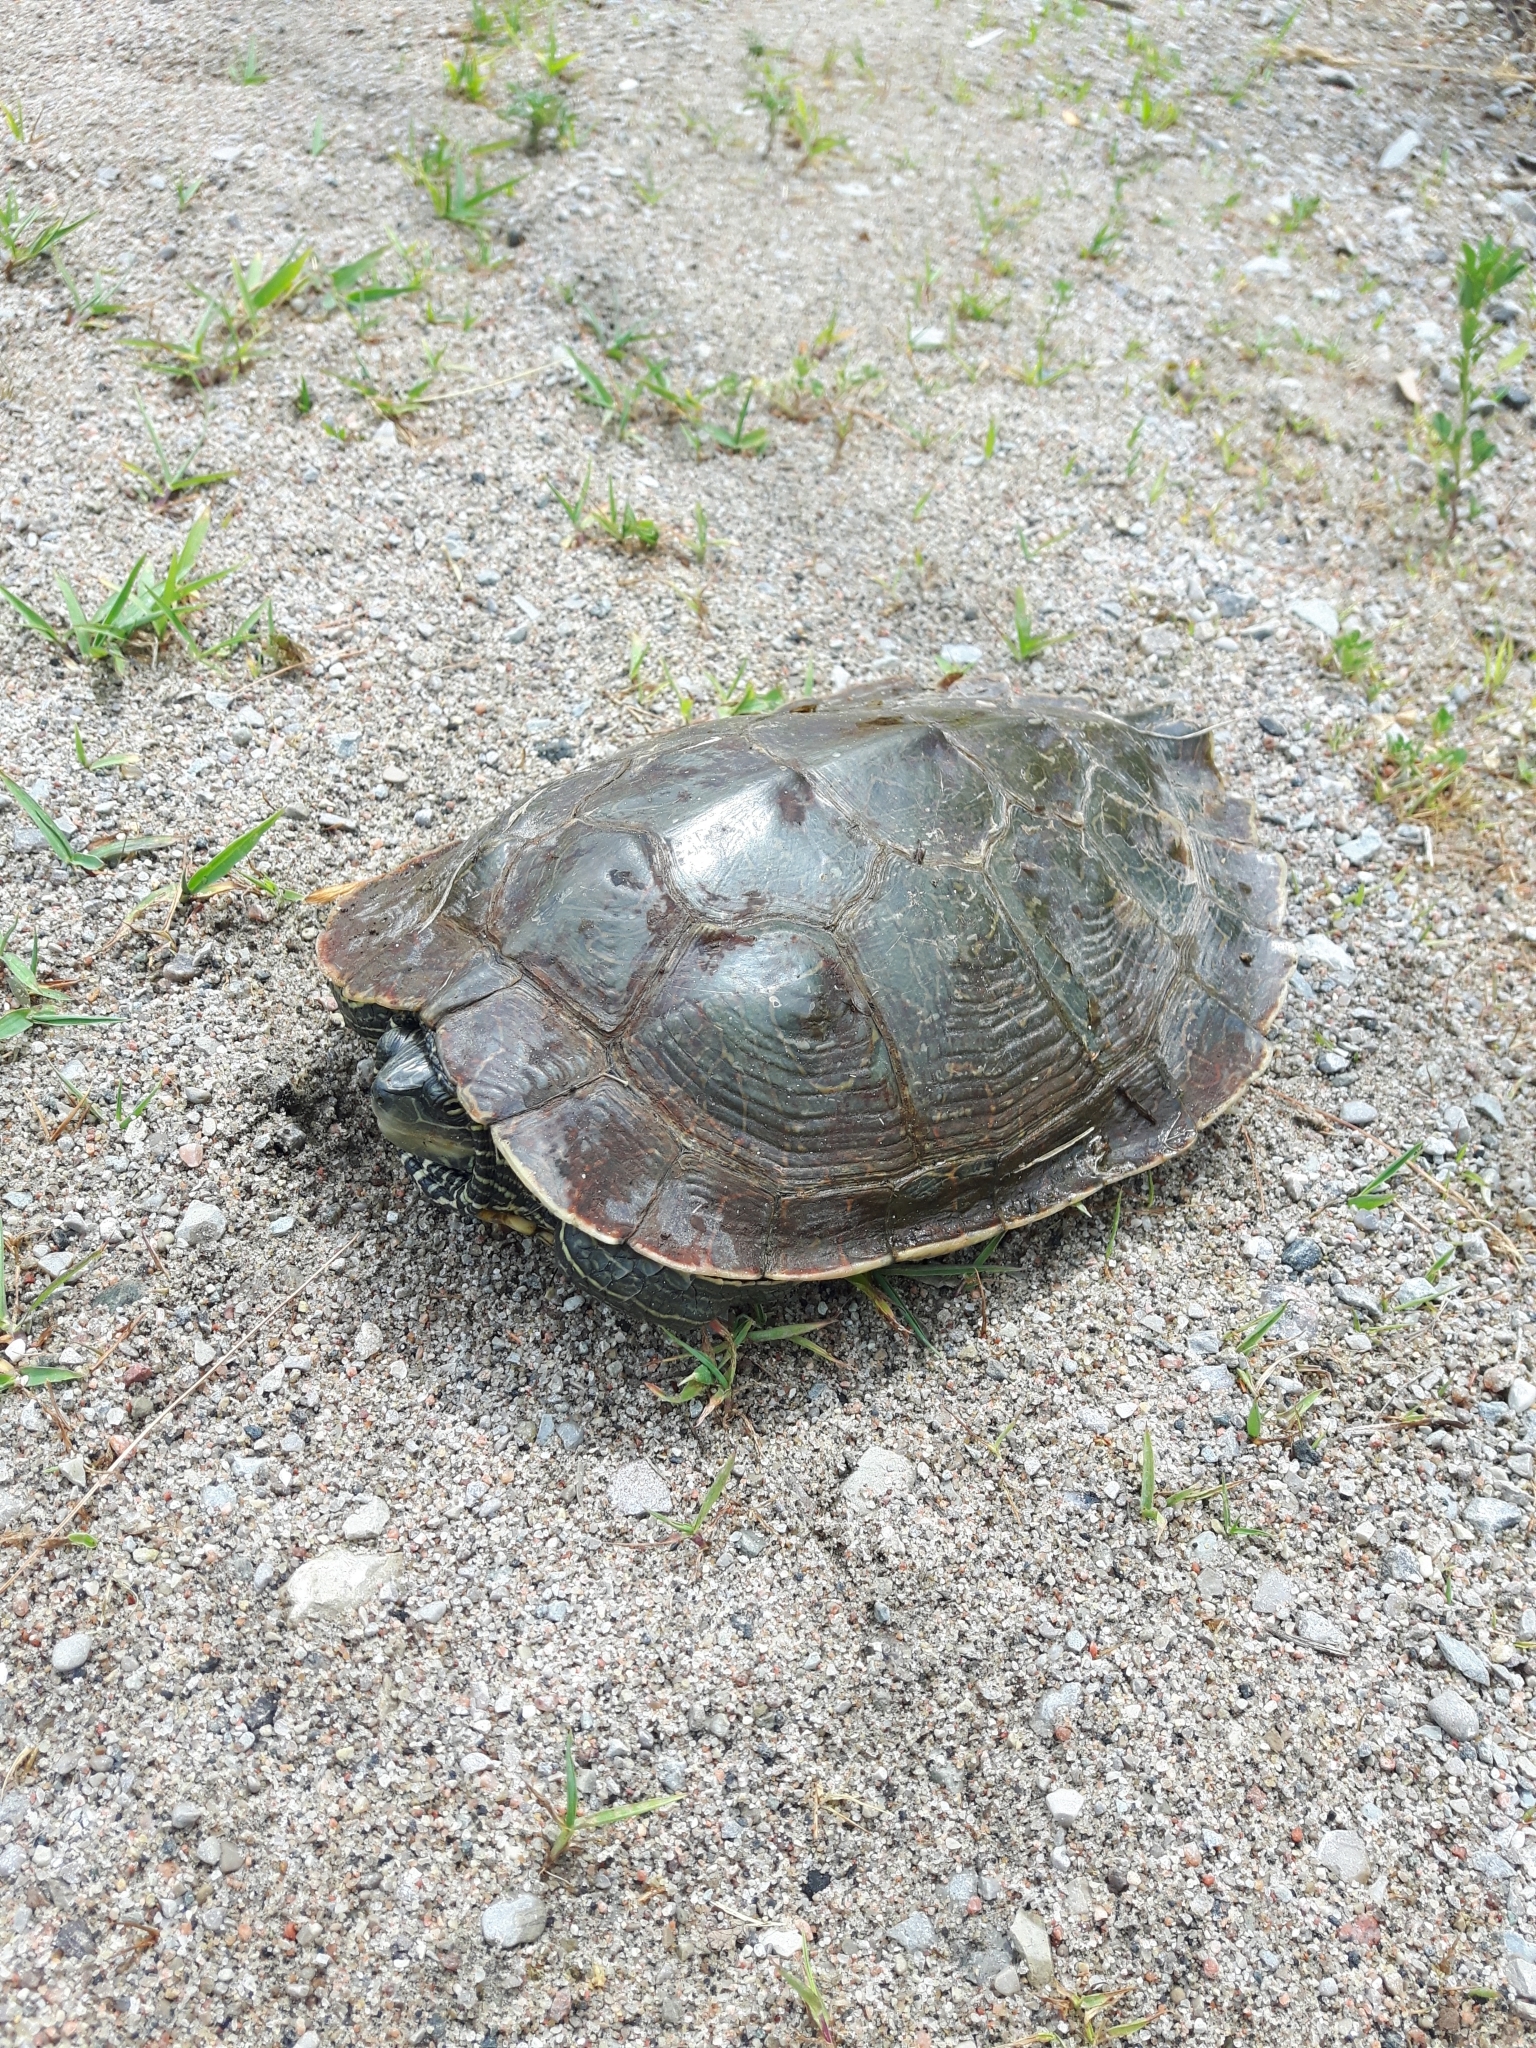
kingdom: Animalia
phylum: Chordata
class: Testudines
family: Emydidae
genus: Graptemys
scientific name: Graptemys geographica
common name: Common map turtle
